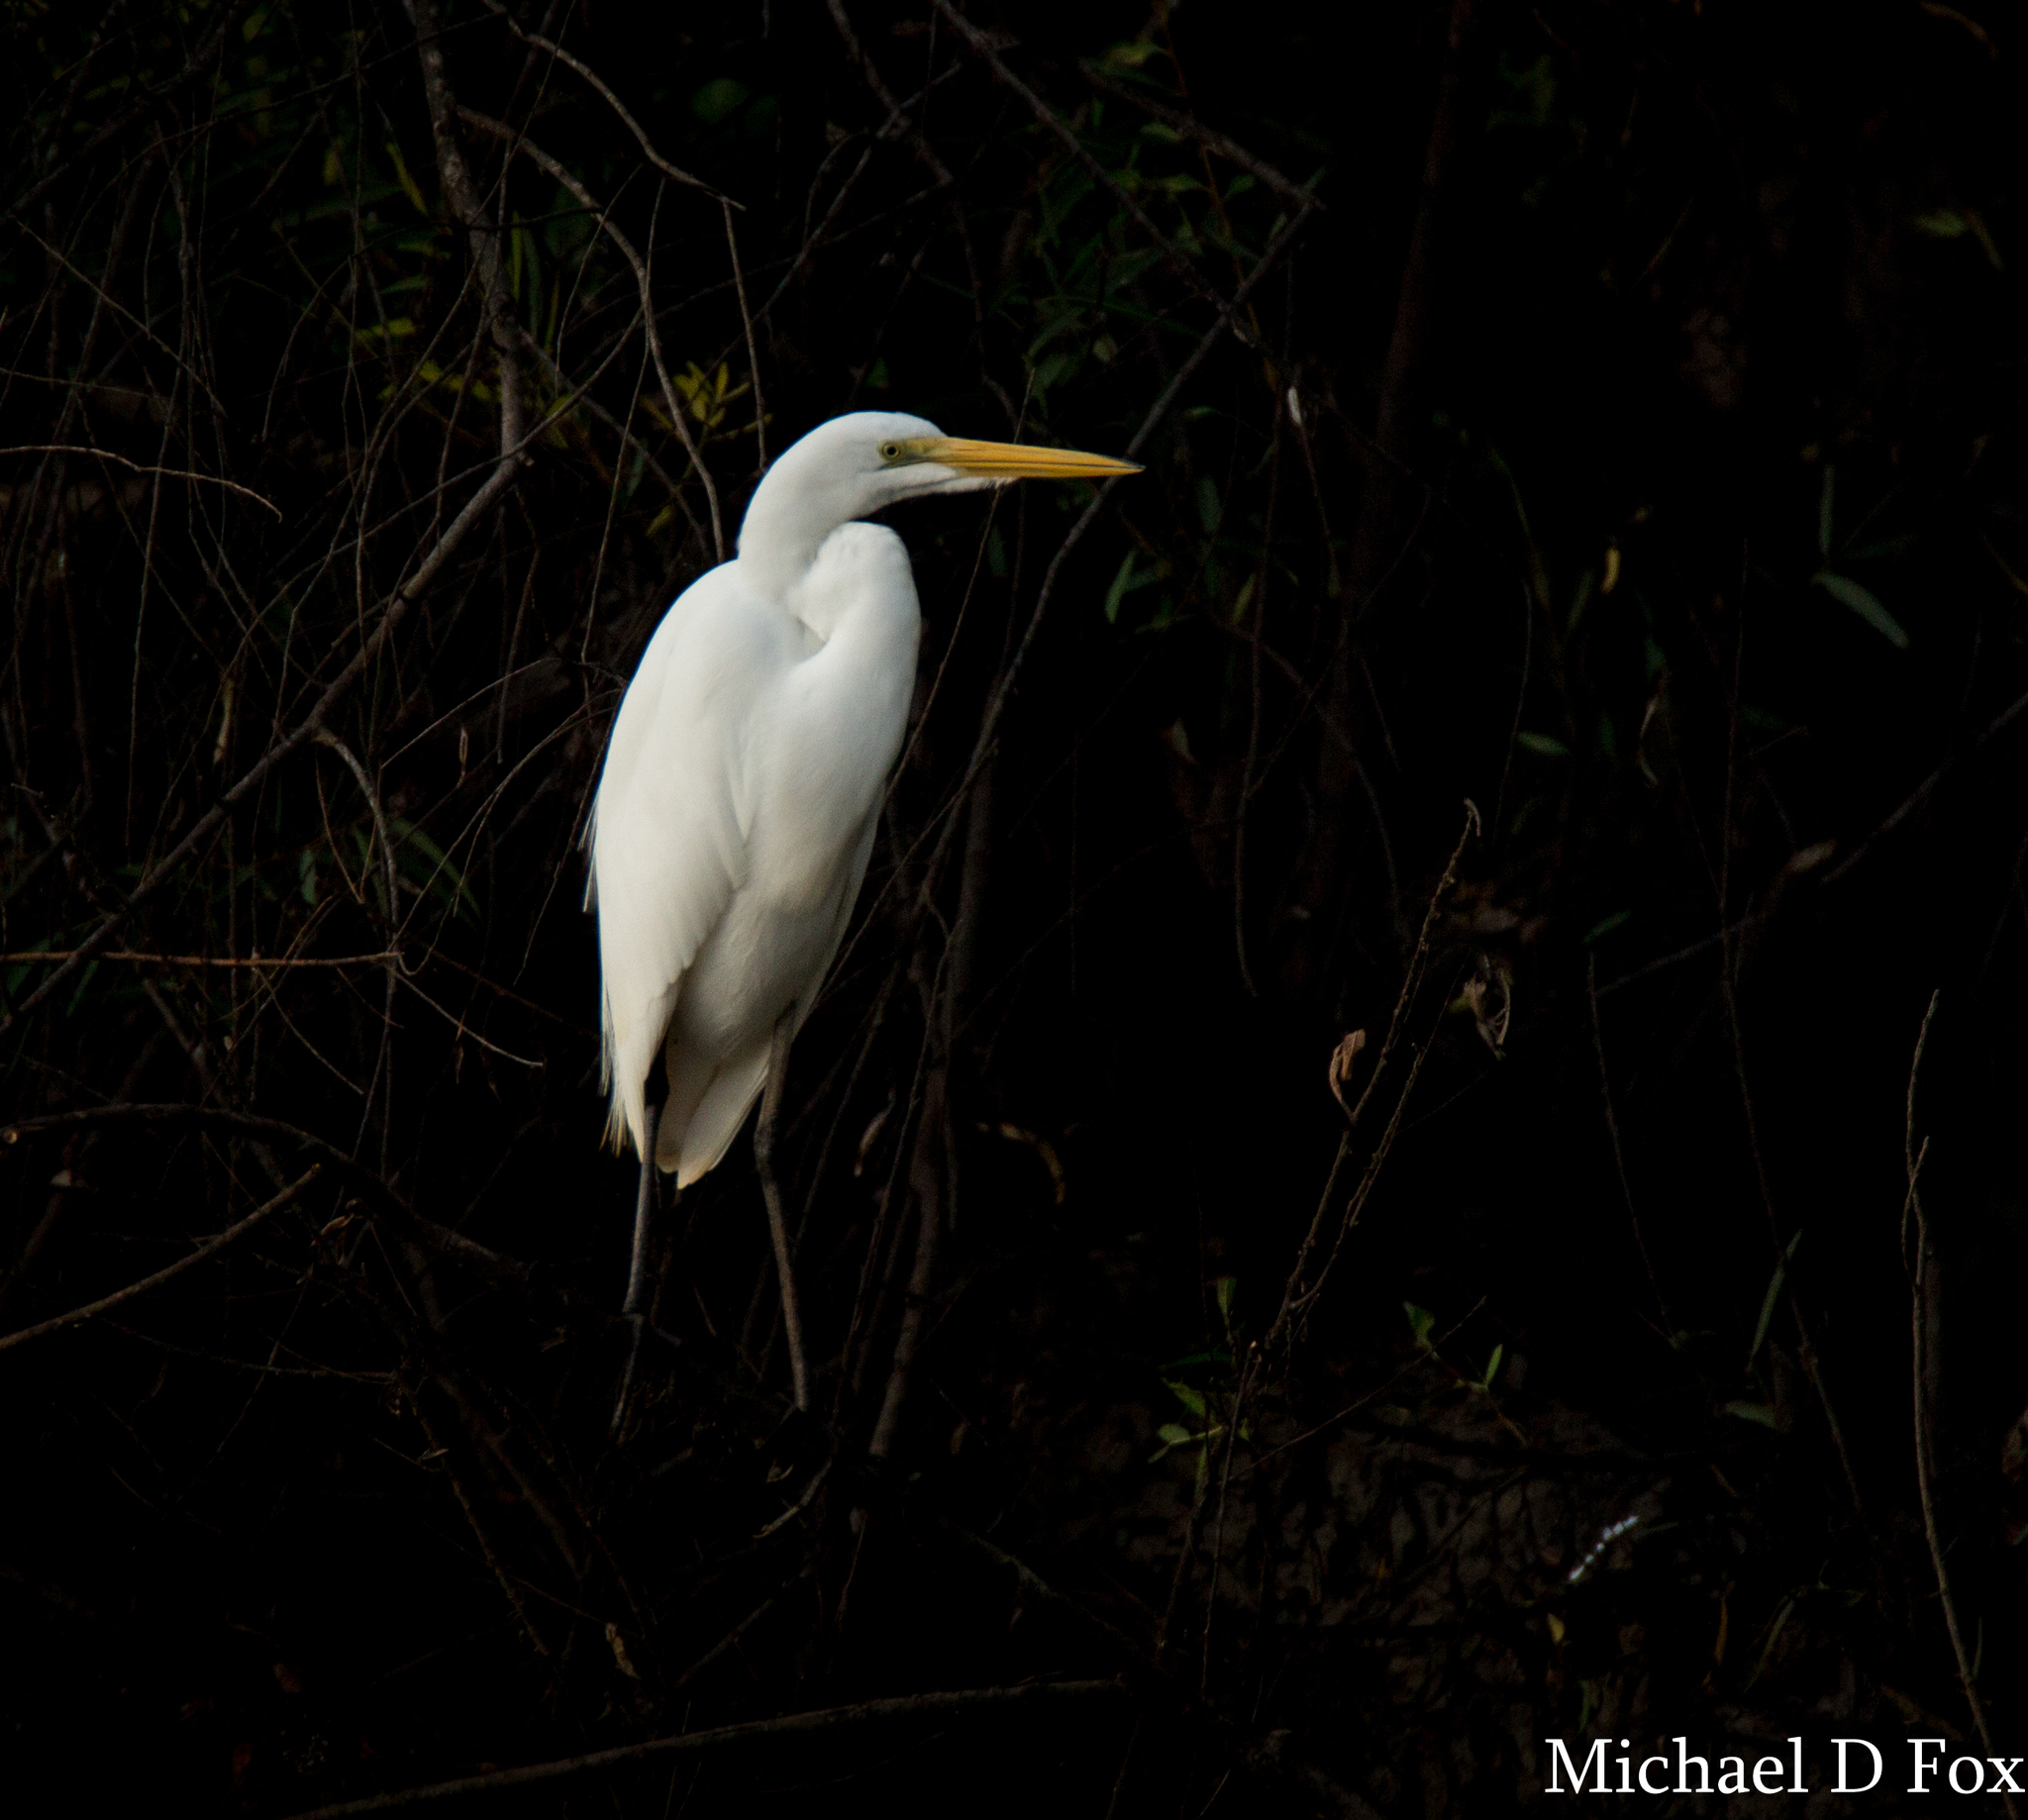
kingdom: Animalia
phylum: Chordata
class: Aves
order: Pelecaniformes
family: Ardeidae
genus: Ardea
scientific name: Ardea alba
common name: Great egret
